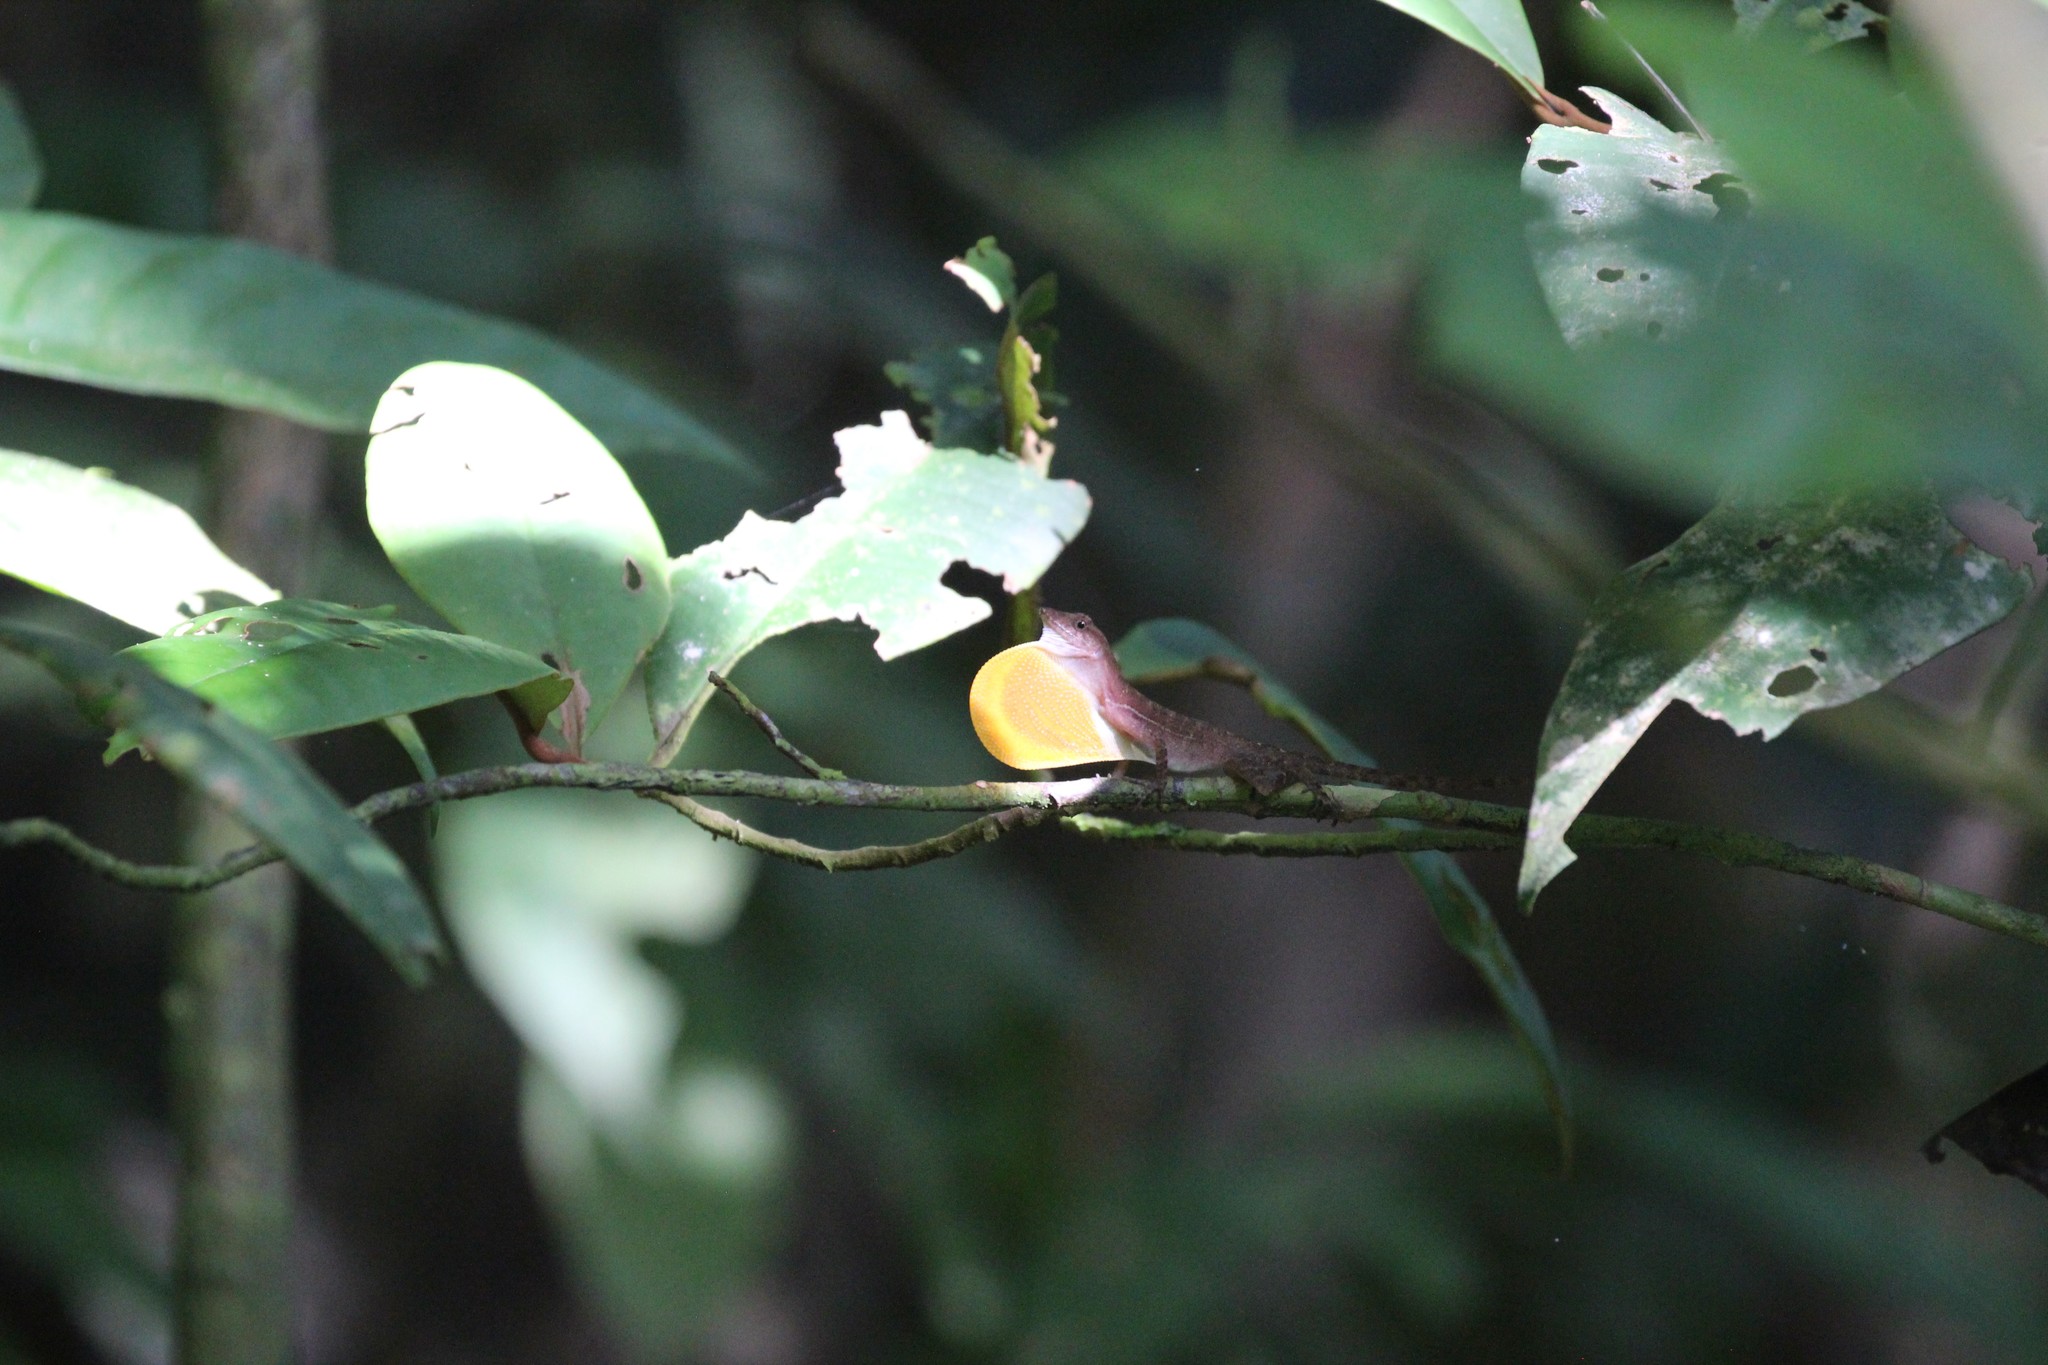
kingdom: Animalia
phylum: Chordata
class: Squamata
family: Dactyloidae
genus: Anolis
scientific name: Anolis osa
